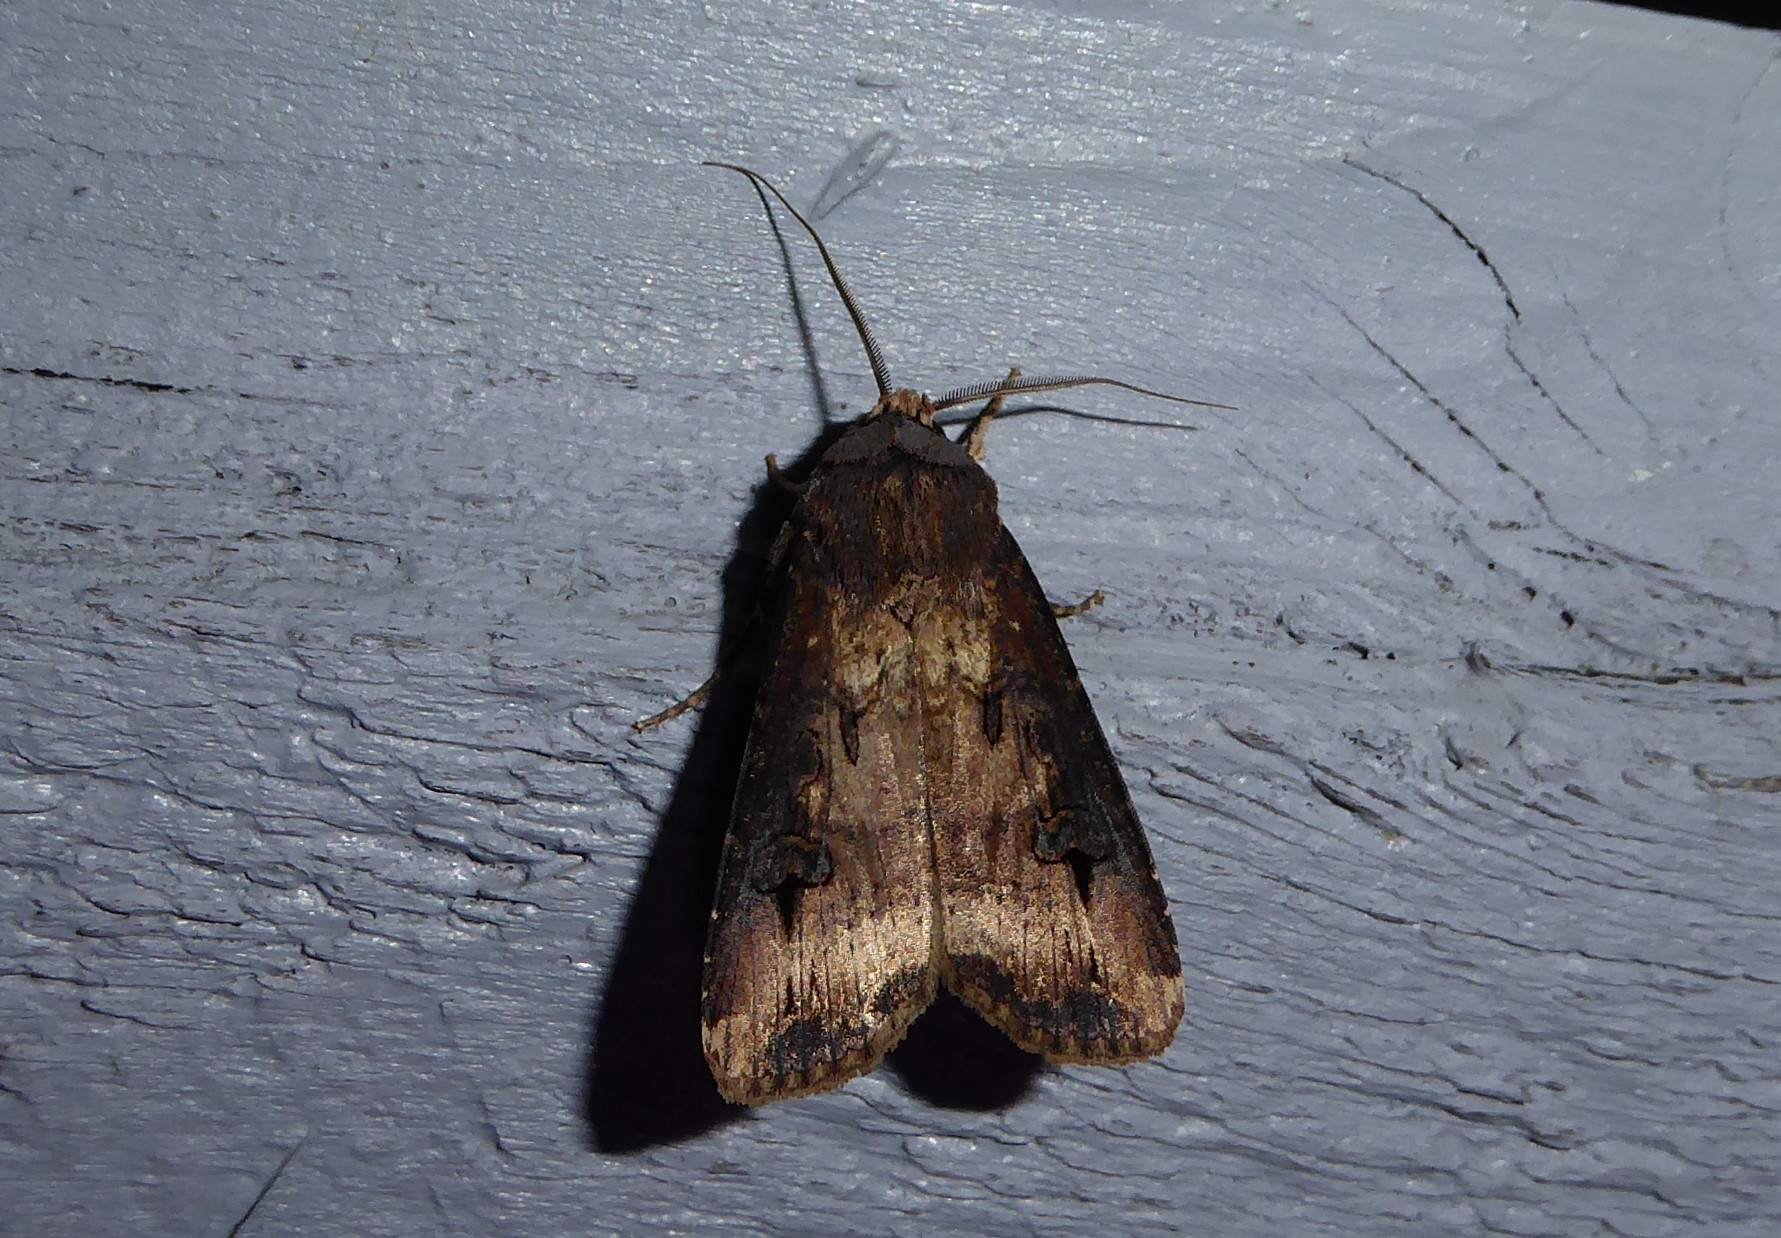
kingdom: Animalia
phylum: Arthropoda
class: Insecta
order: Lepidoptera
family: Noctuidae
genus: Agrotis
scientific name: Agrotis ipsilon
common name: Dark sword-grass
